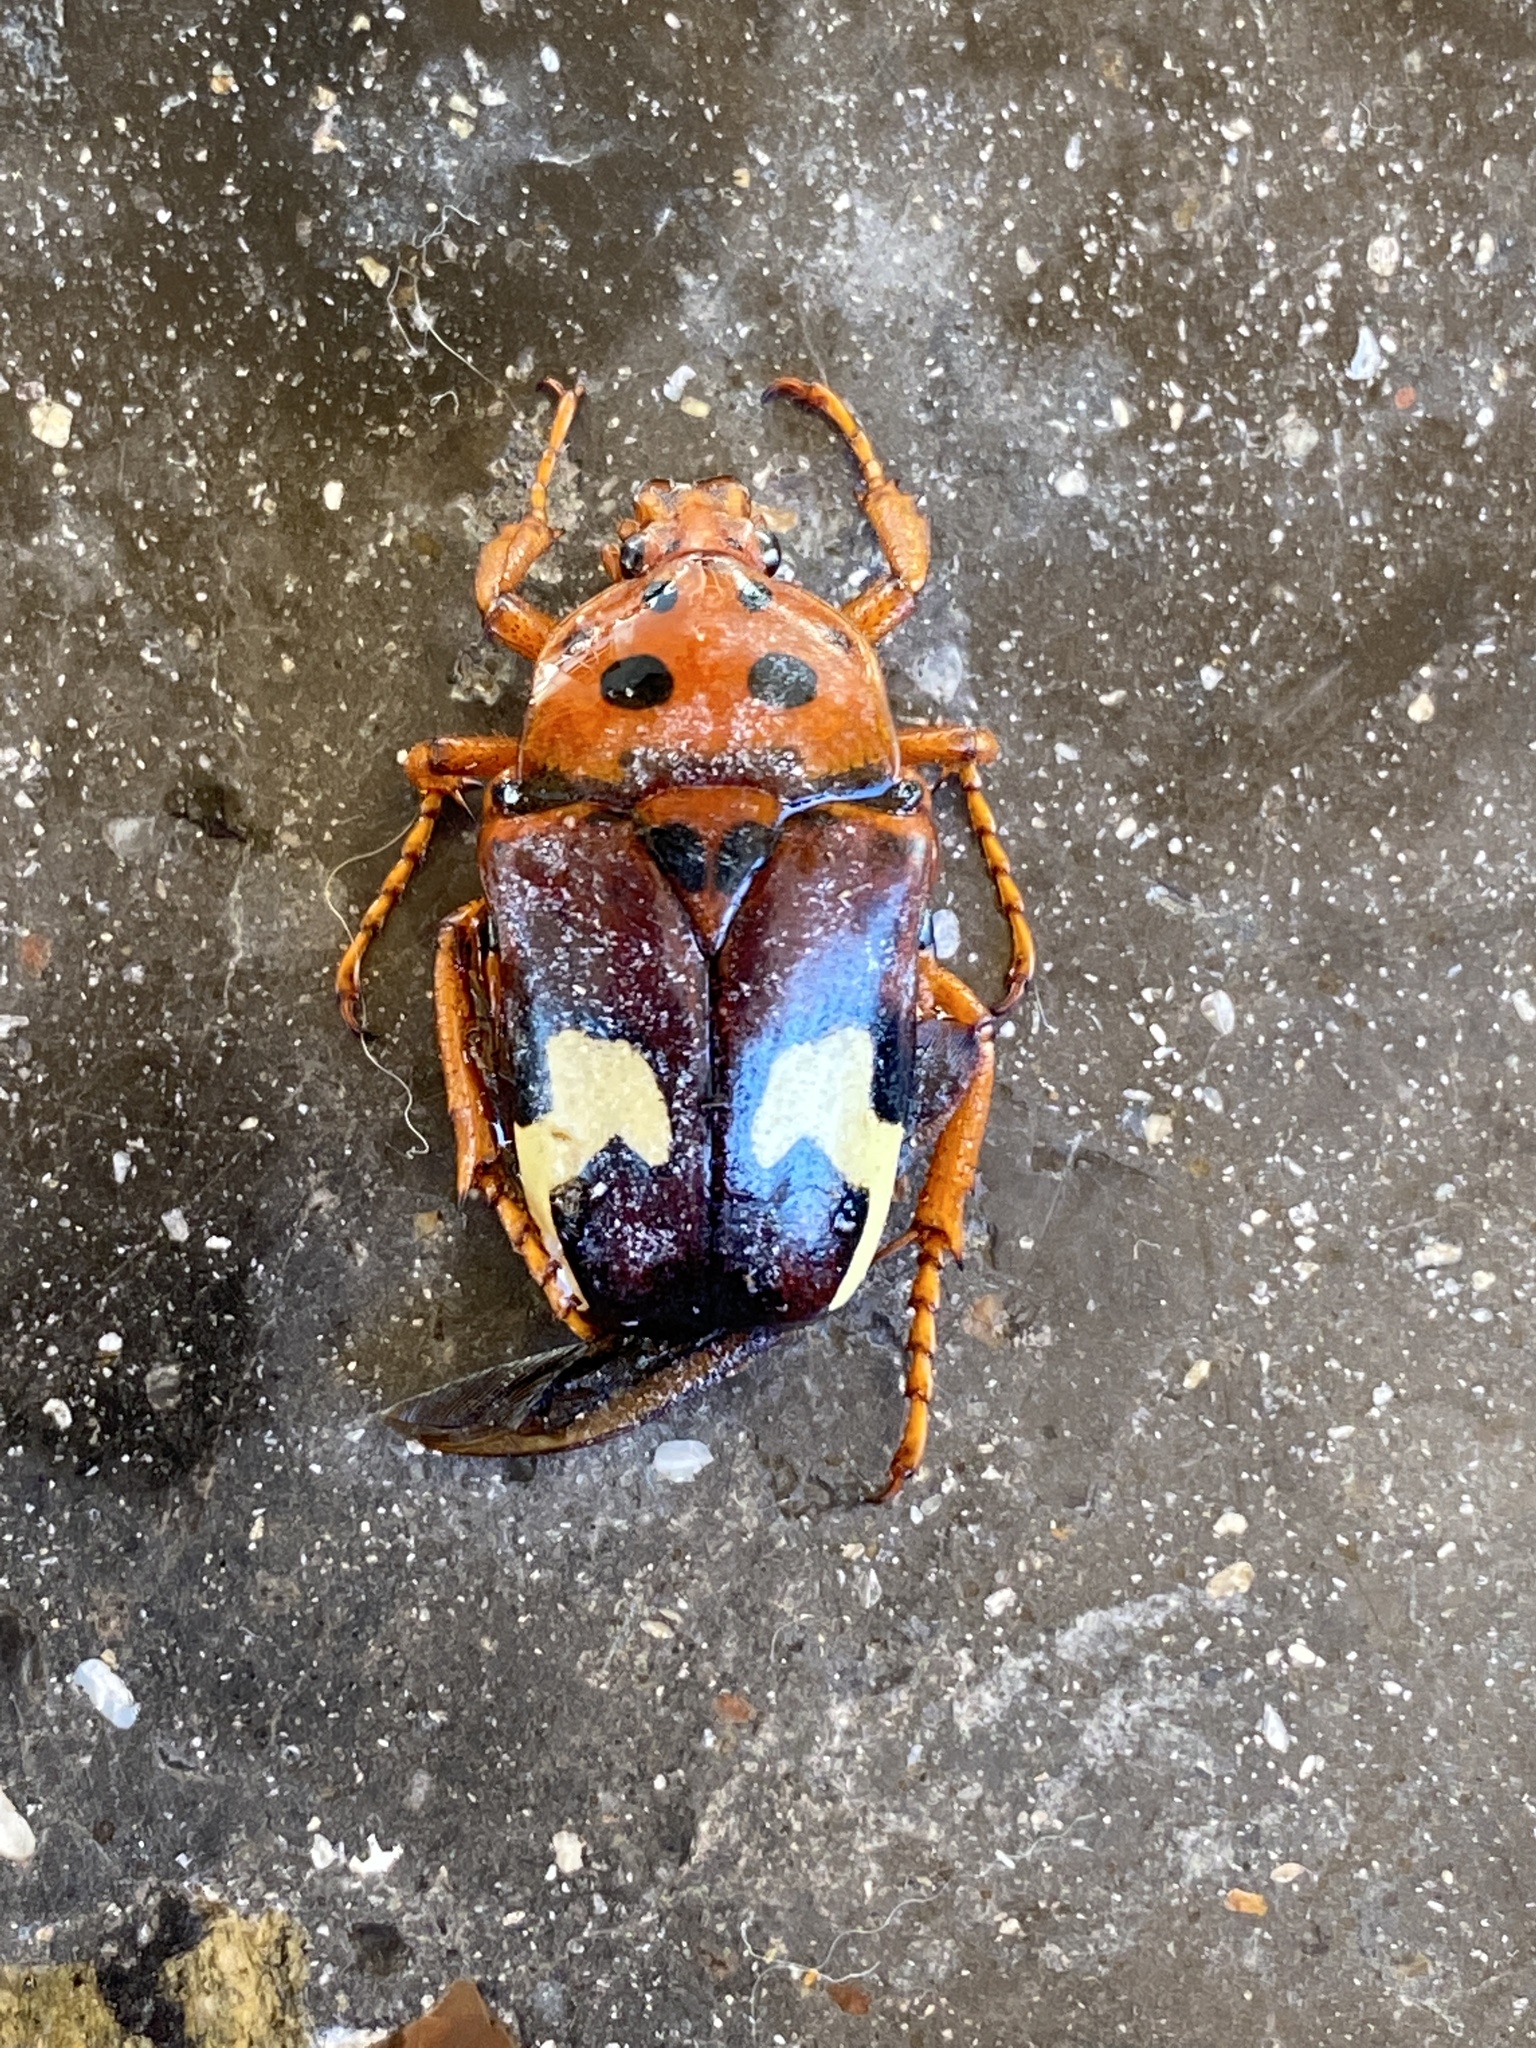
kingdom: Animalia
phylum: Arthropoda
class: Insecta
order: Coleoptera
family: Scarabaeidae
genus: Anisorrhina
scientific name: Anisorrhina flavomaculata
